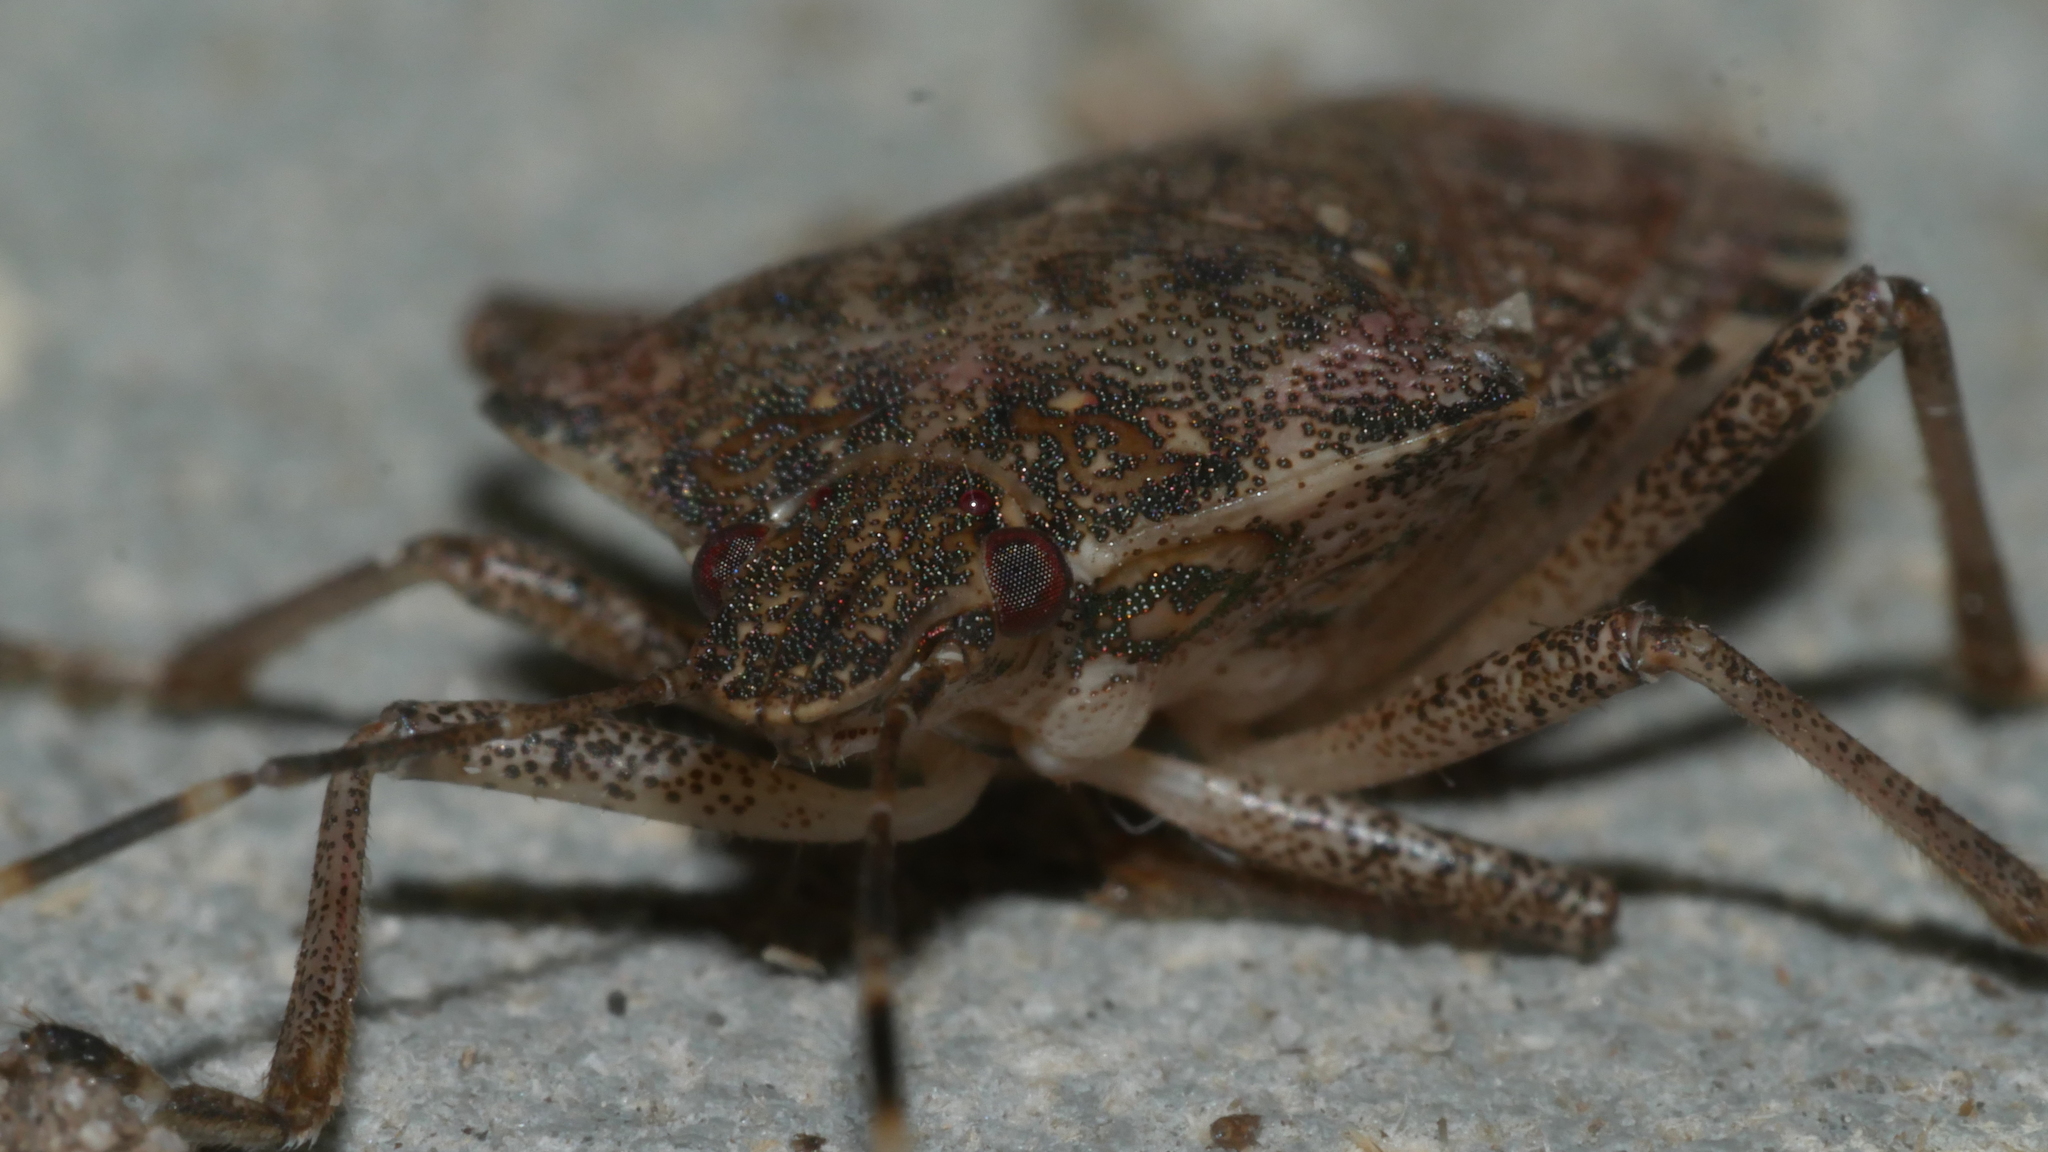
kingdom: Animalia
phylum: Arthropoda
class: Insecta
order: Hemiptera
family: Pentatomidae
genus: Halyomorpha
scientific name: Halyomorpha halys
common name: Brown marmorated stink bug
